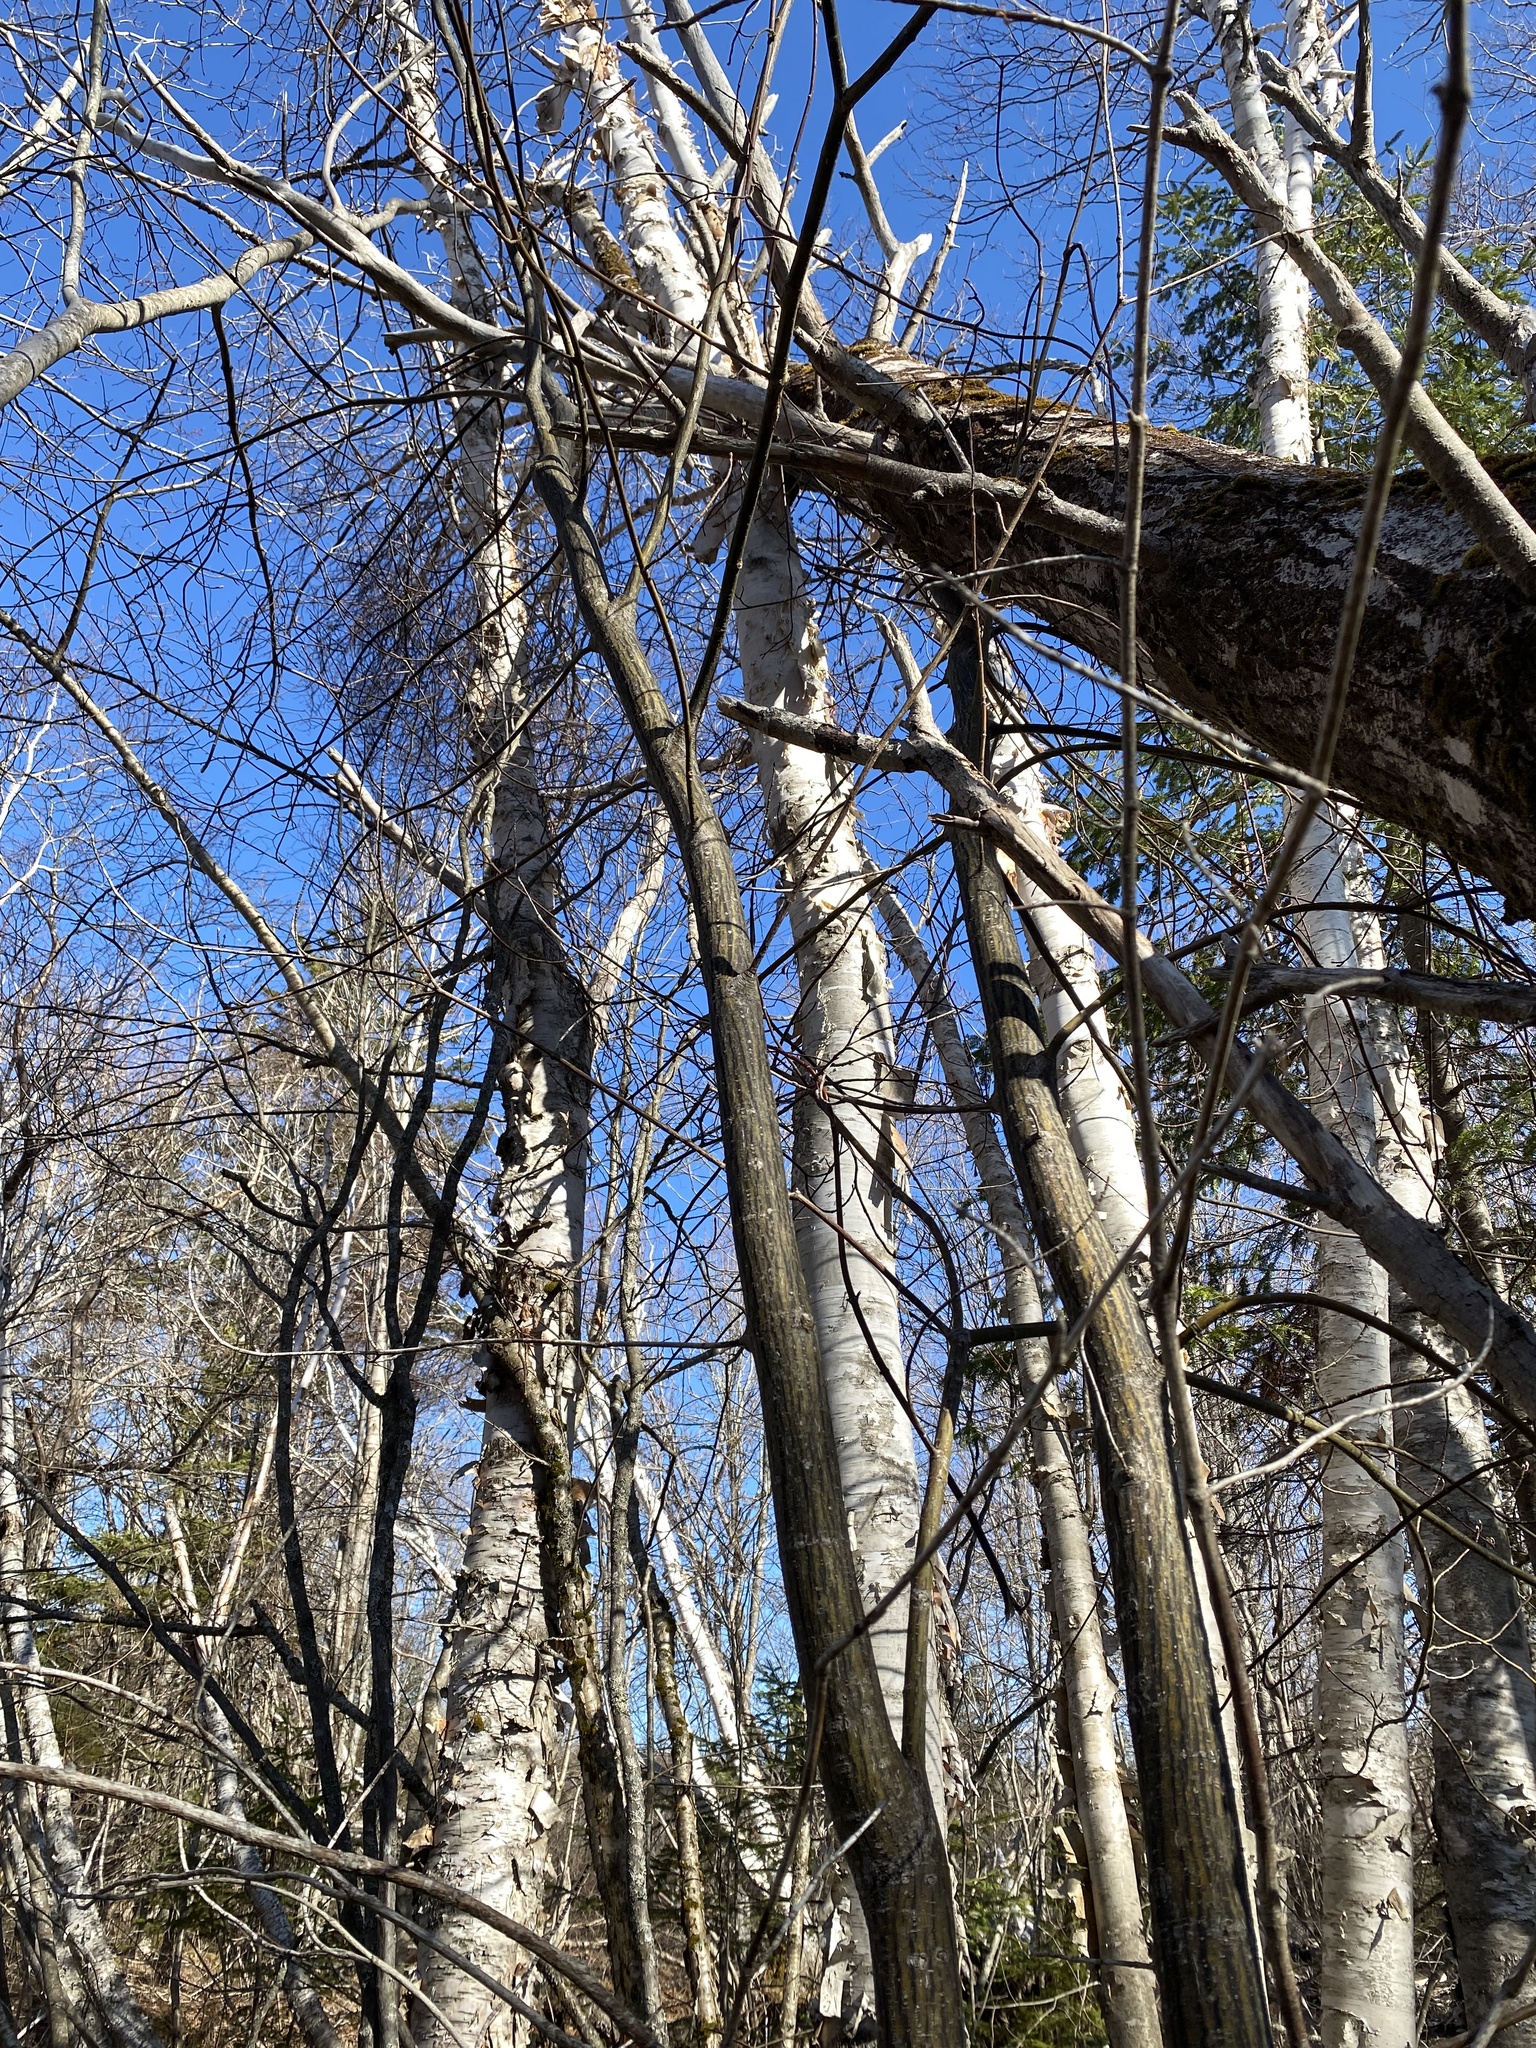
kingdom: Plantae
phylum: Tracheophyta
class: Magnoliopsida
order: Sapindales
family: Sapindaceae
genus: Acer
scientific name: Acer pensylvanicum
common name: Moosewood
